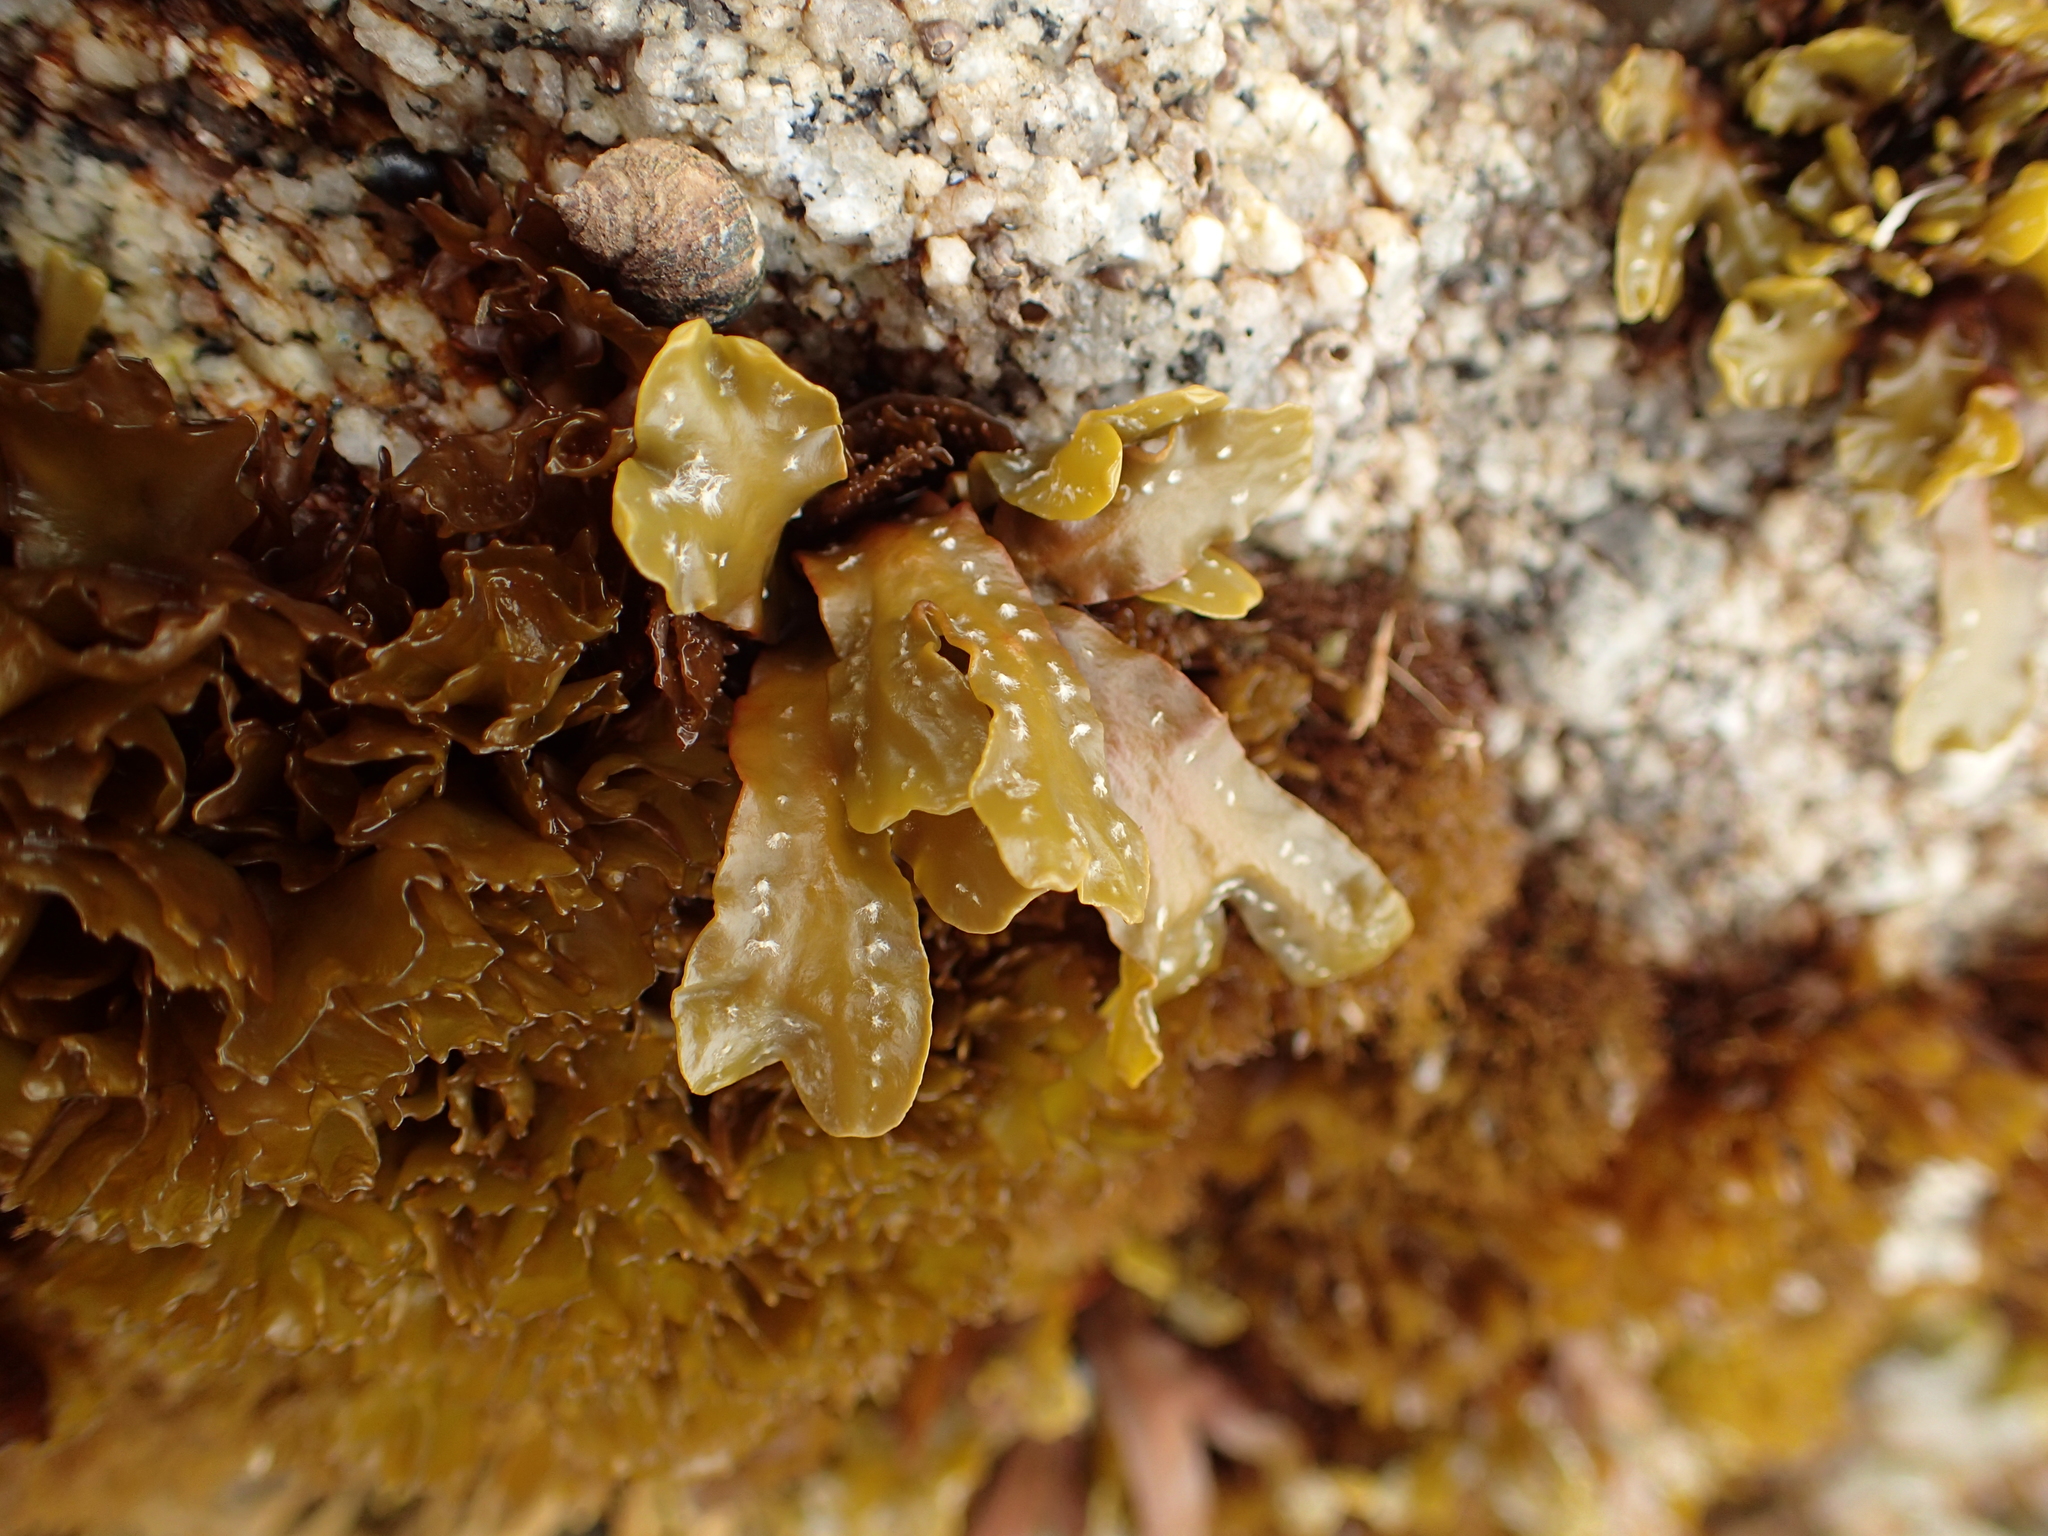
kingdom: Chromista
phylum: Ochrophyta
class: Phaeophyceae
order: Fucales
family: Fucaceae
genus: Pelvetiopsis
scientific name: Pelvetiopsis
